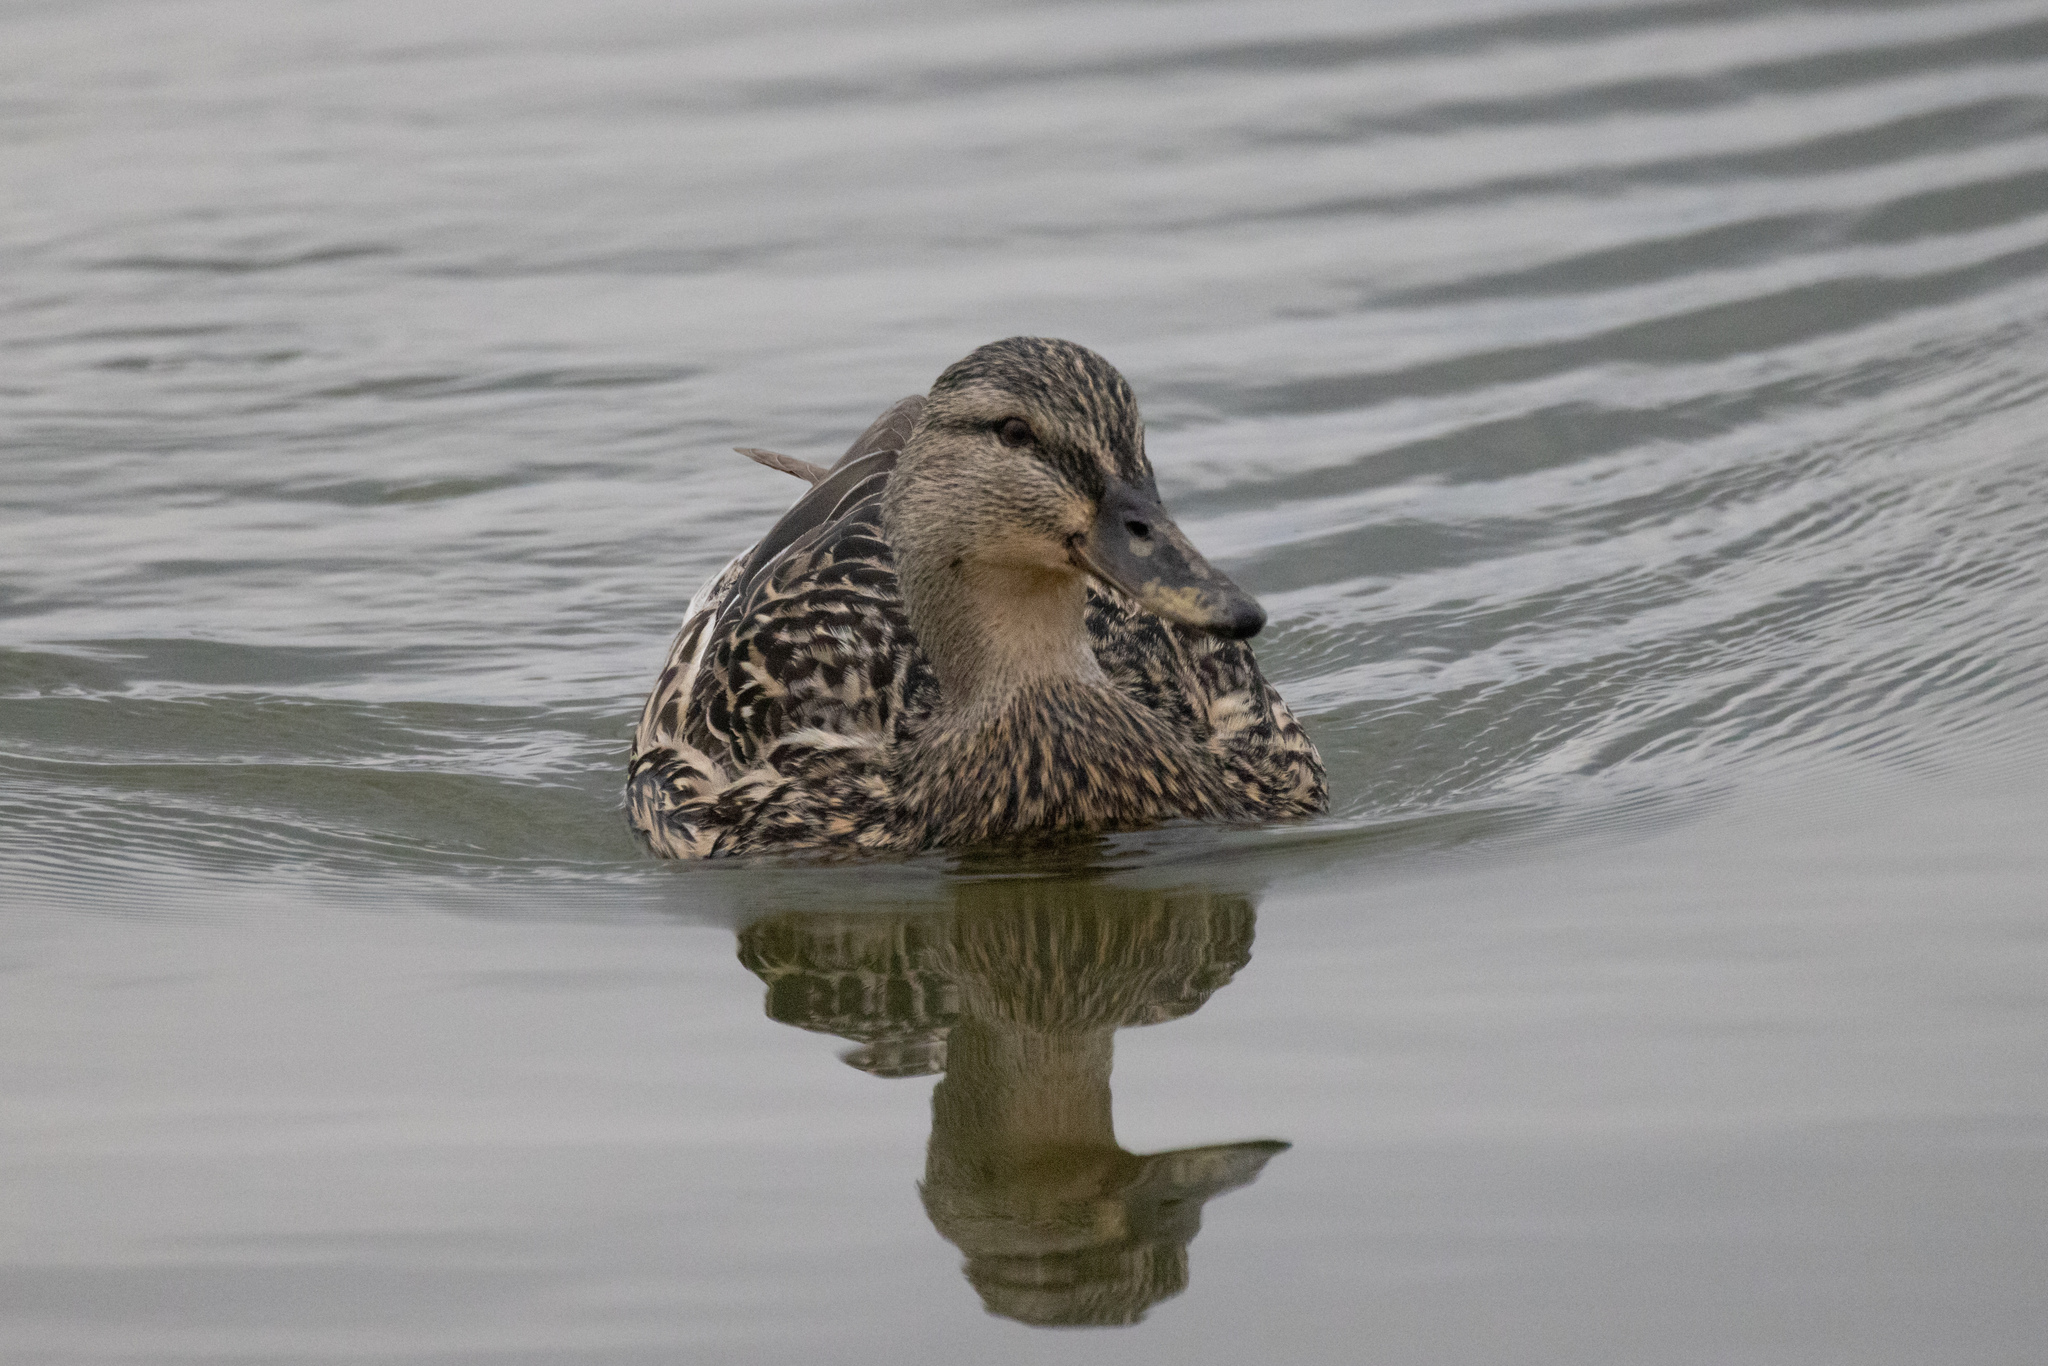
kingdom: Animalia
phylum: Chordata
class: Aves
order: Anseriformes
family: Anatidae
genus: Anas
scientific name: Anas platyrhynchos
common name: Mallard
